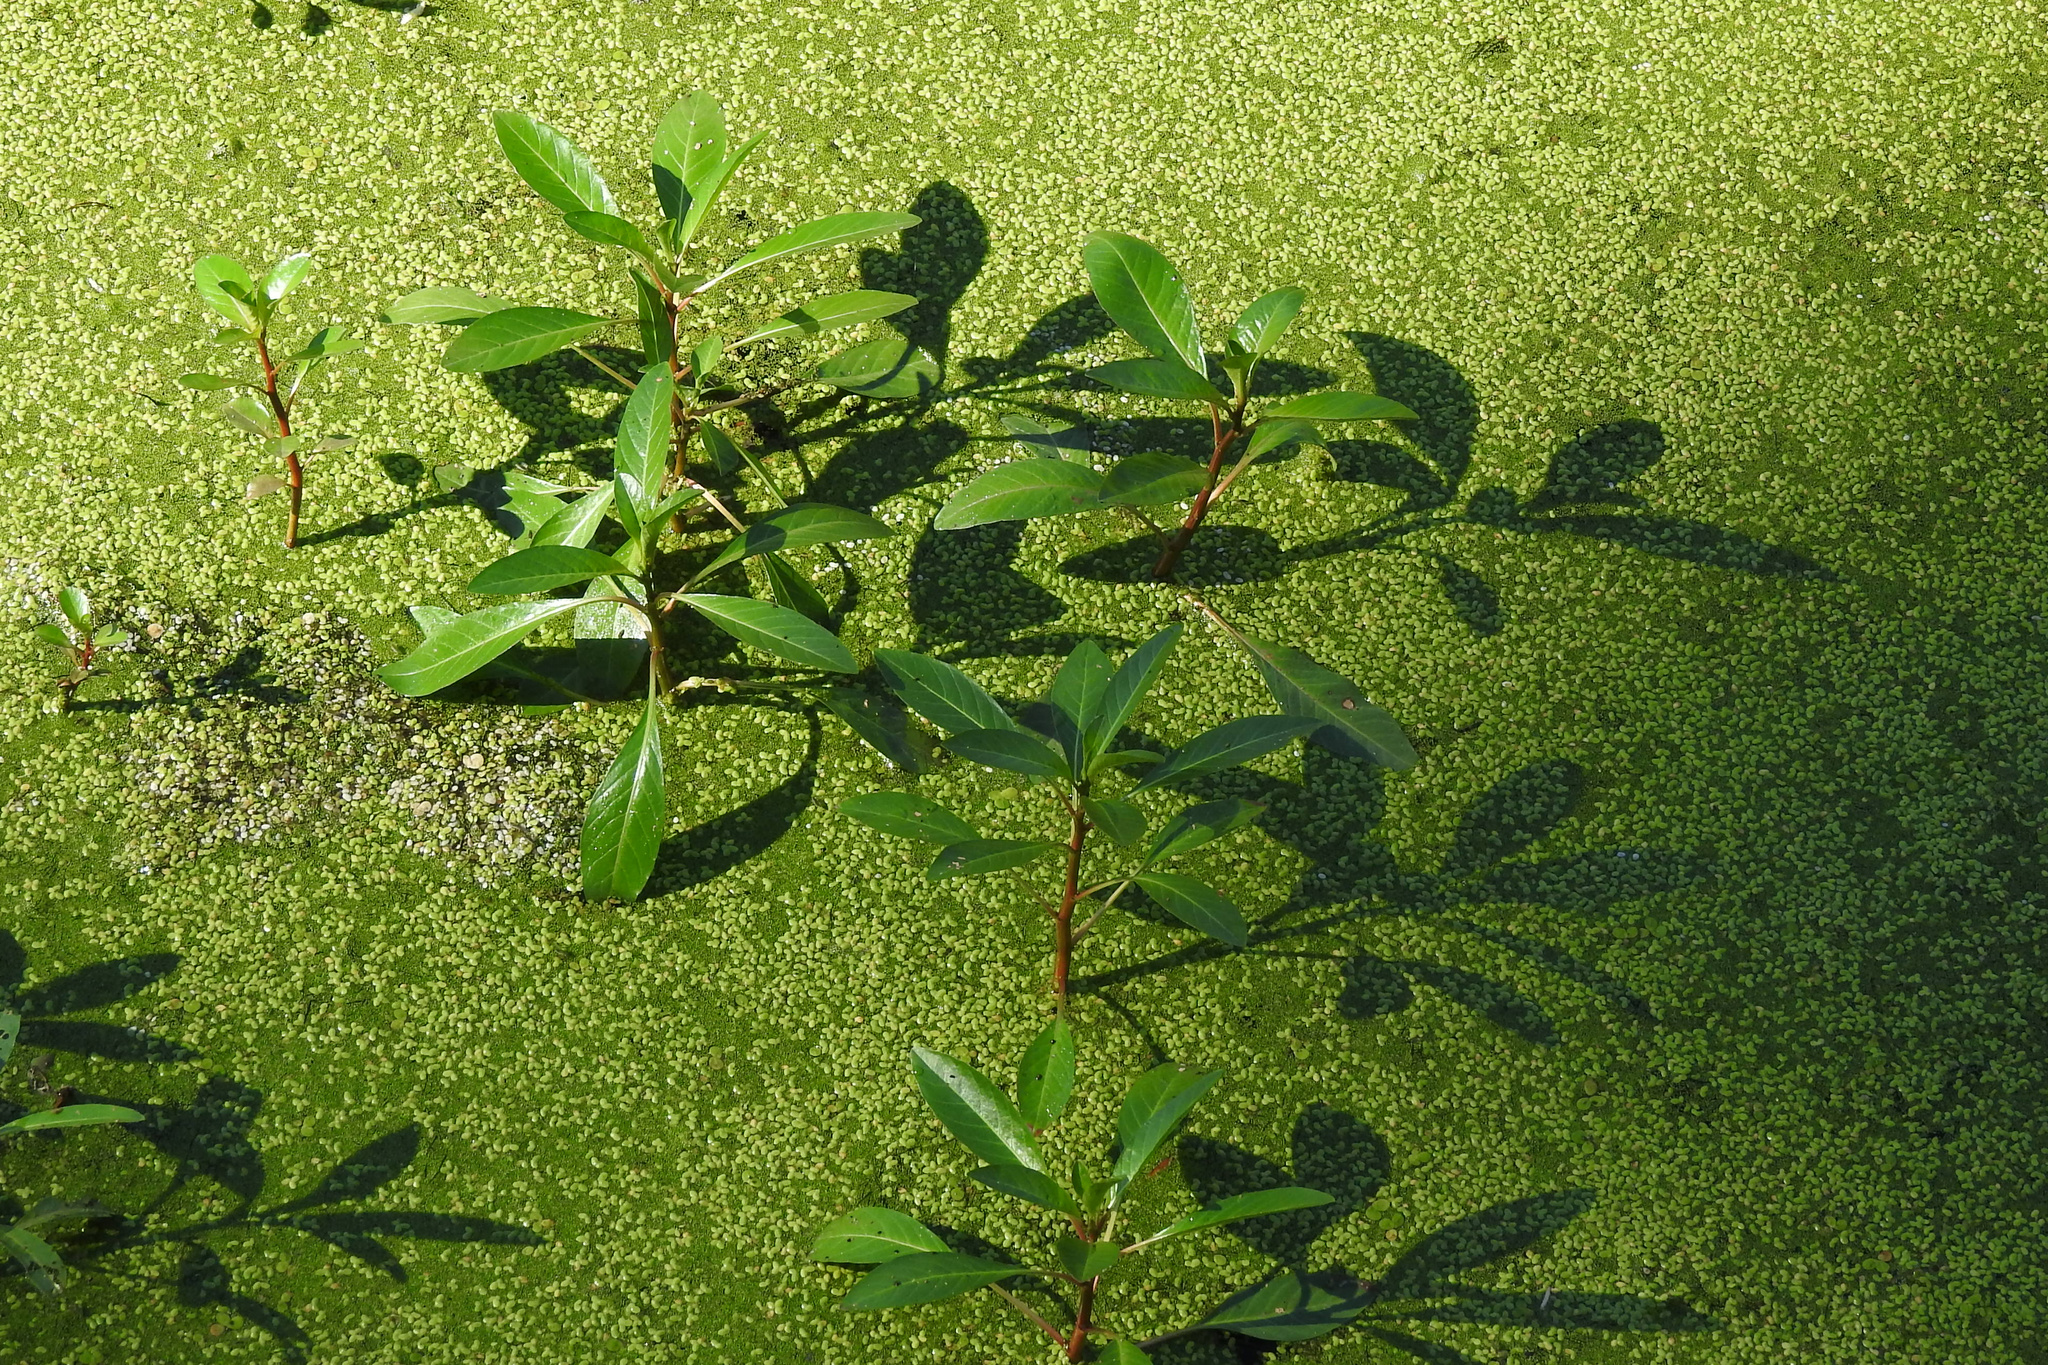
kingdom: Plantae
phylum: Tracheophyta
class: Magnoliopsida
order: Myrtales
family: Onagraceae
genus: Ludwigia
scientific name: Ludwigia peploides
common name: Floating primrose-willow
